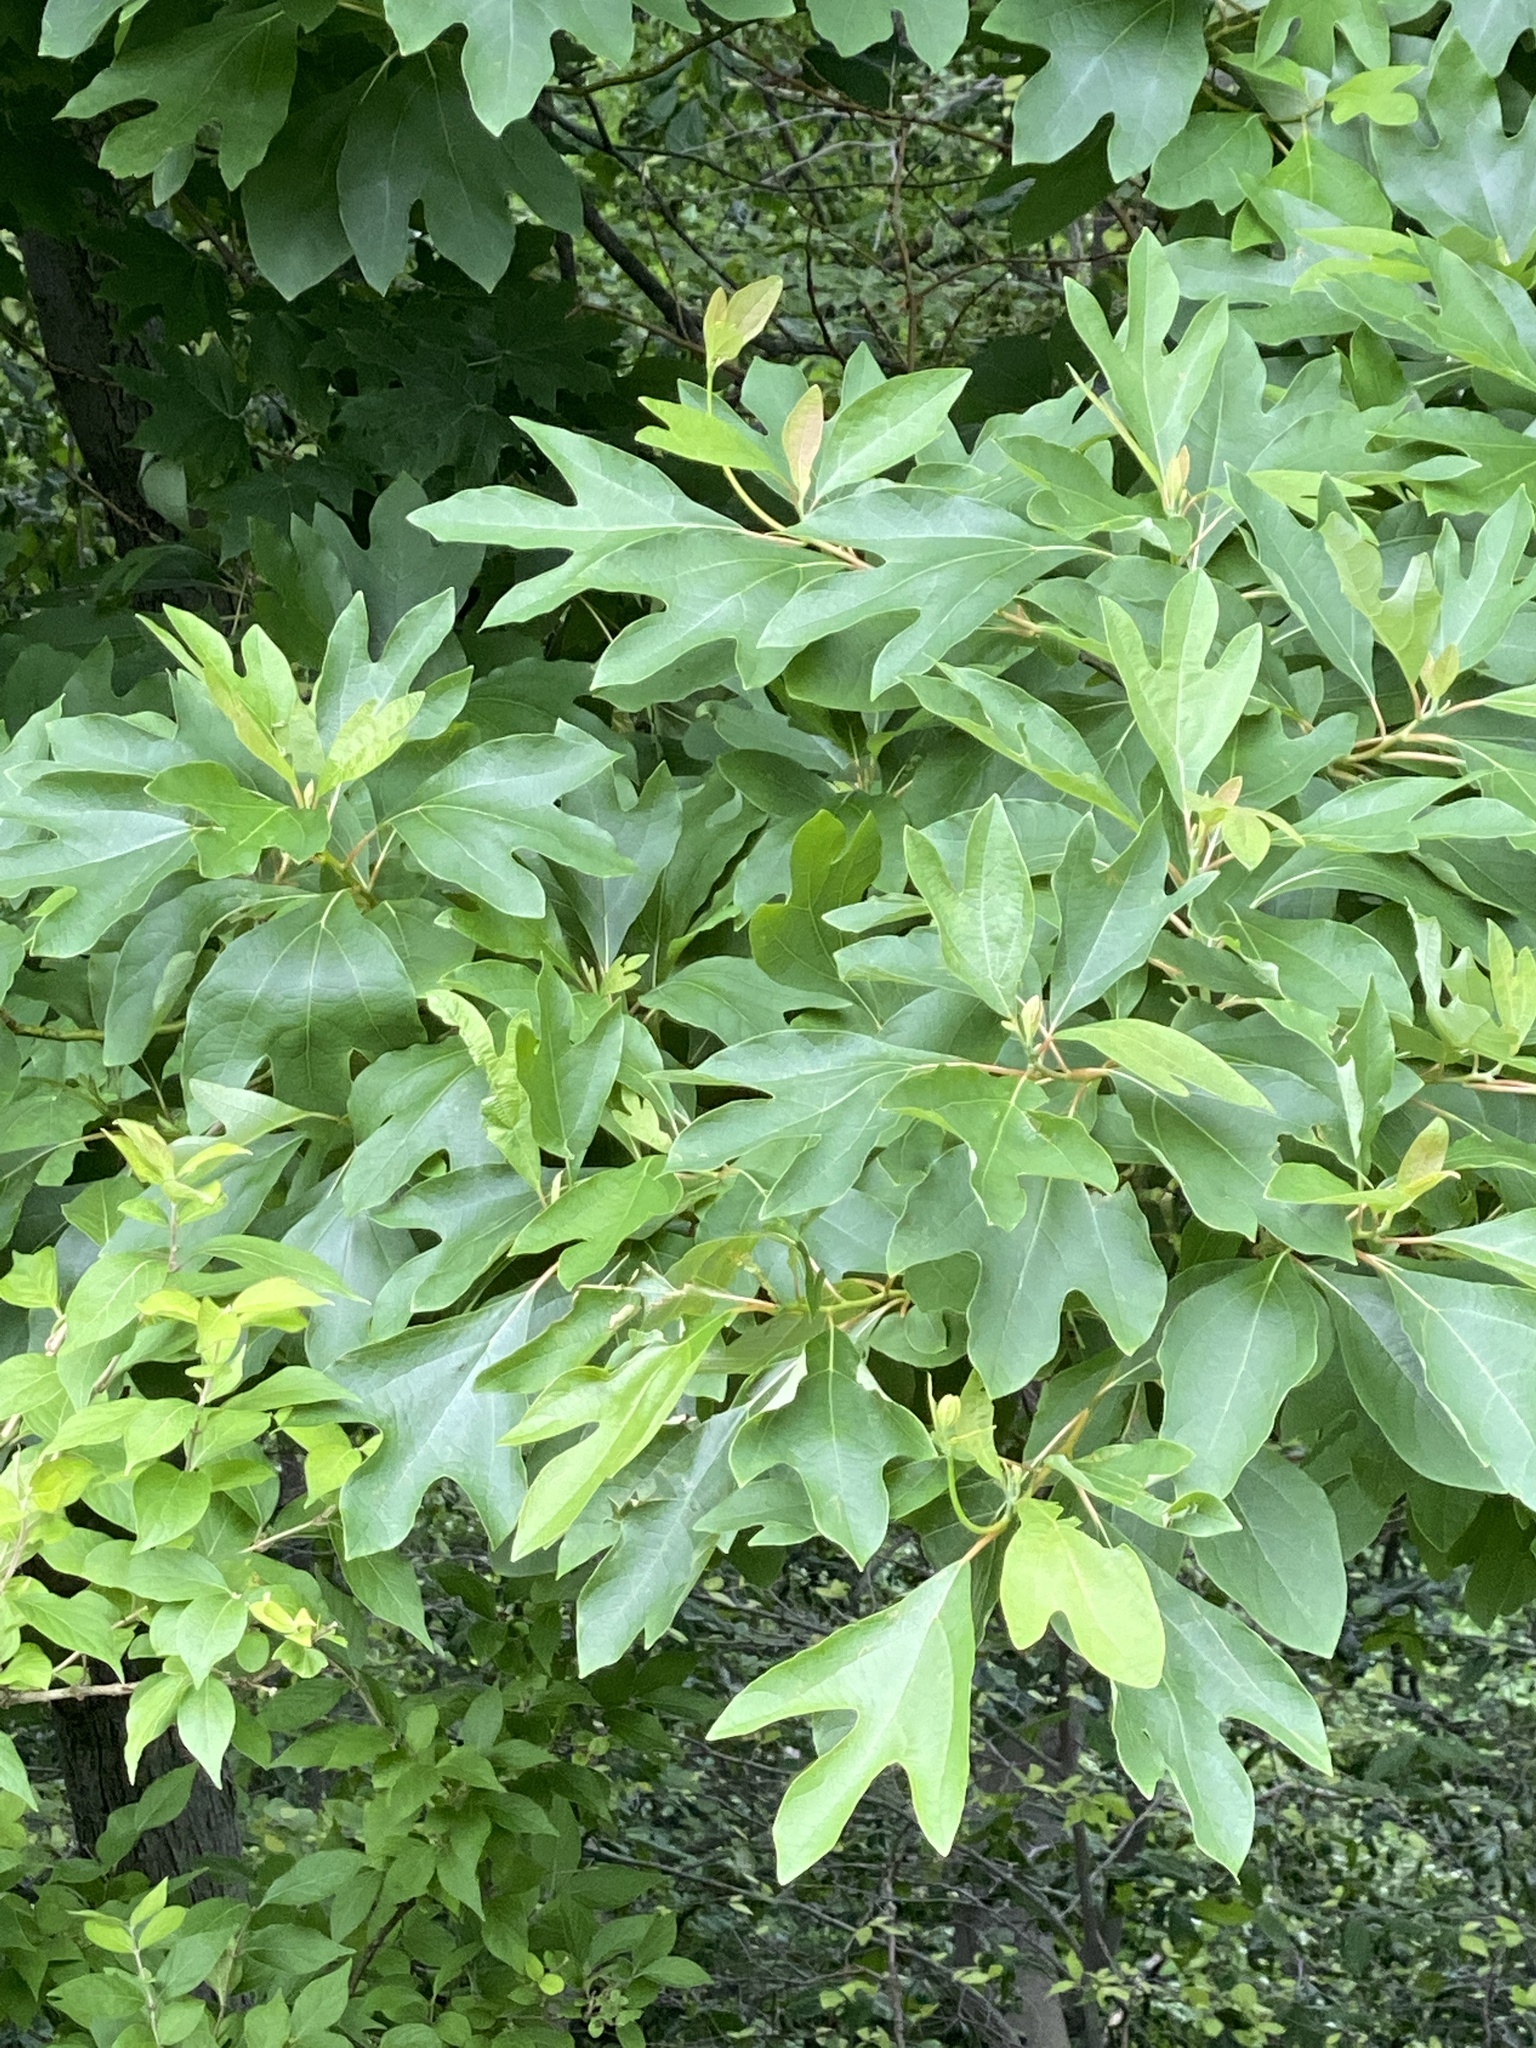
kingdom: Plantae
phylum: Tracheophyta
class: Magnoliopsida
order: Laurales
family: Lauraceae
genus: Sassafras
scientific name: Sassafras albidum
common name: Sassafras
